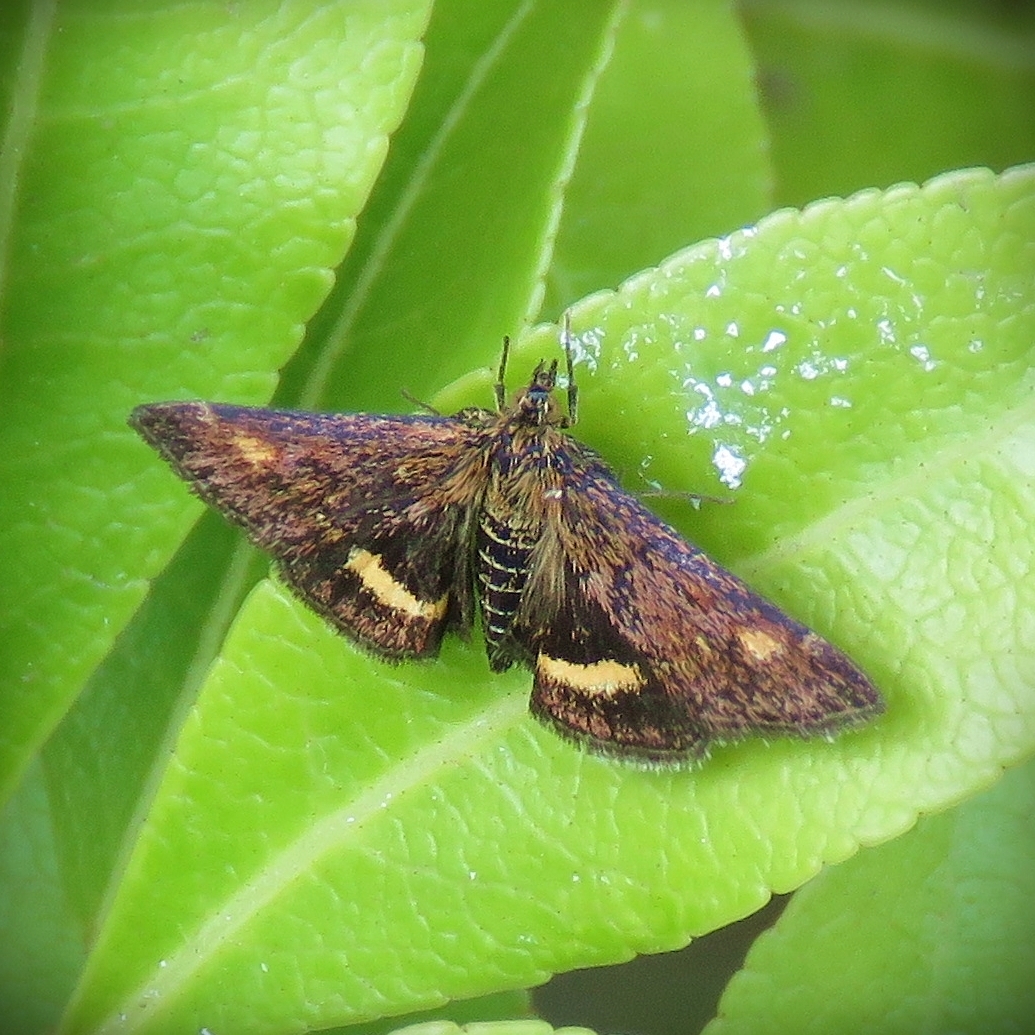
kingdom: Animalia
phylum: Arthropoda
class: Insecta
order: Lepidoptera
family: Crambidae
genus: Pyrausta
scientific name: Pyrausta aurata
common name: Small purple & gold
